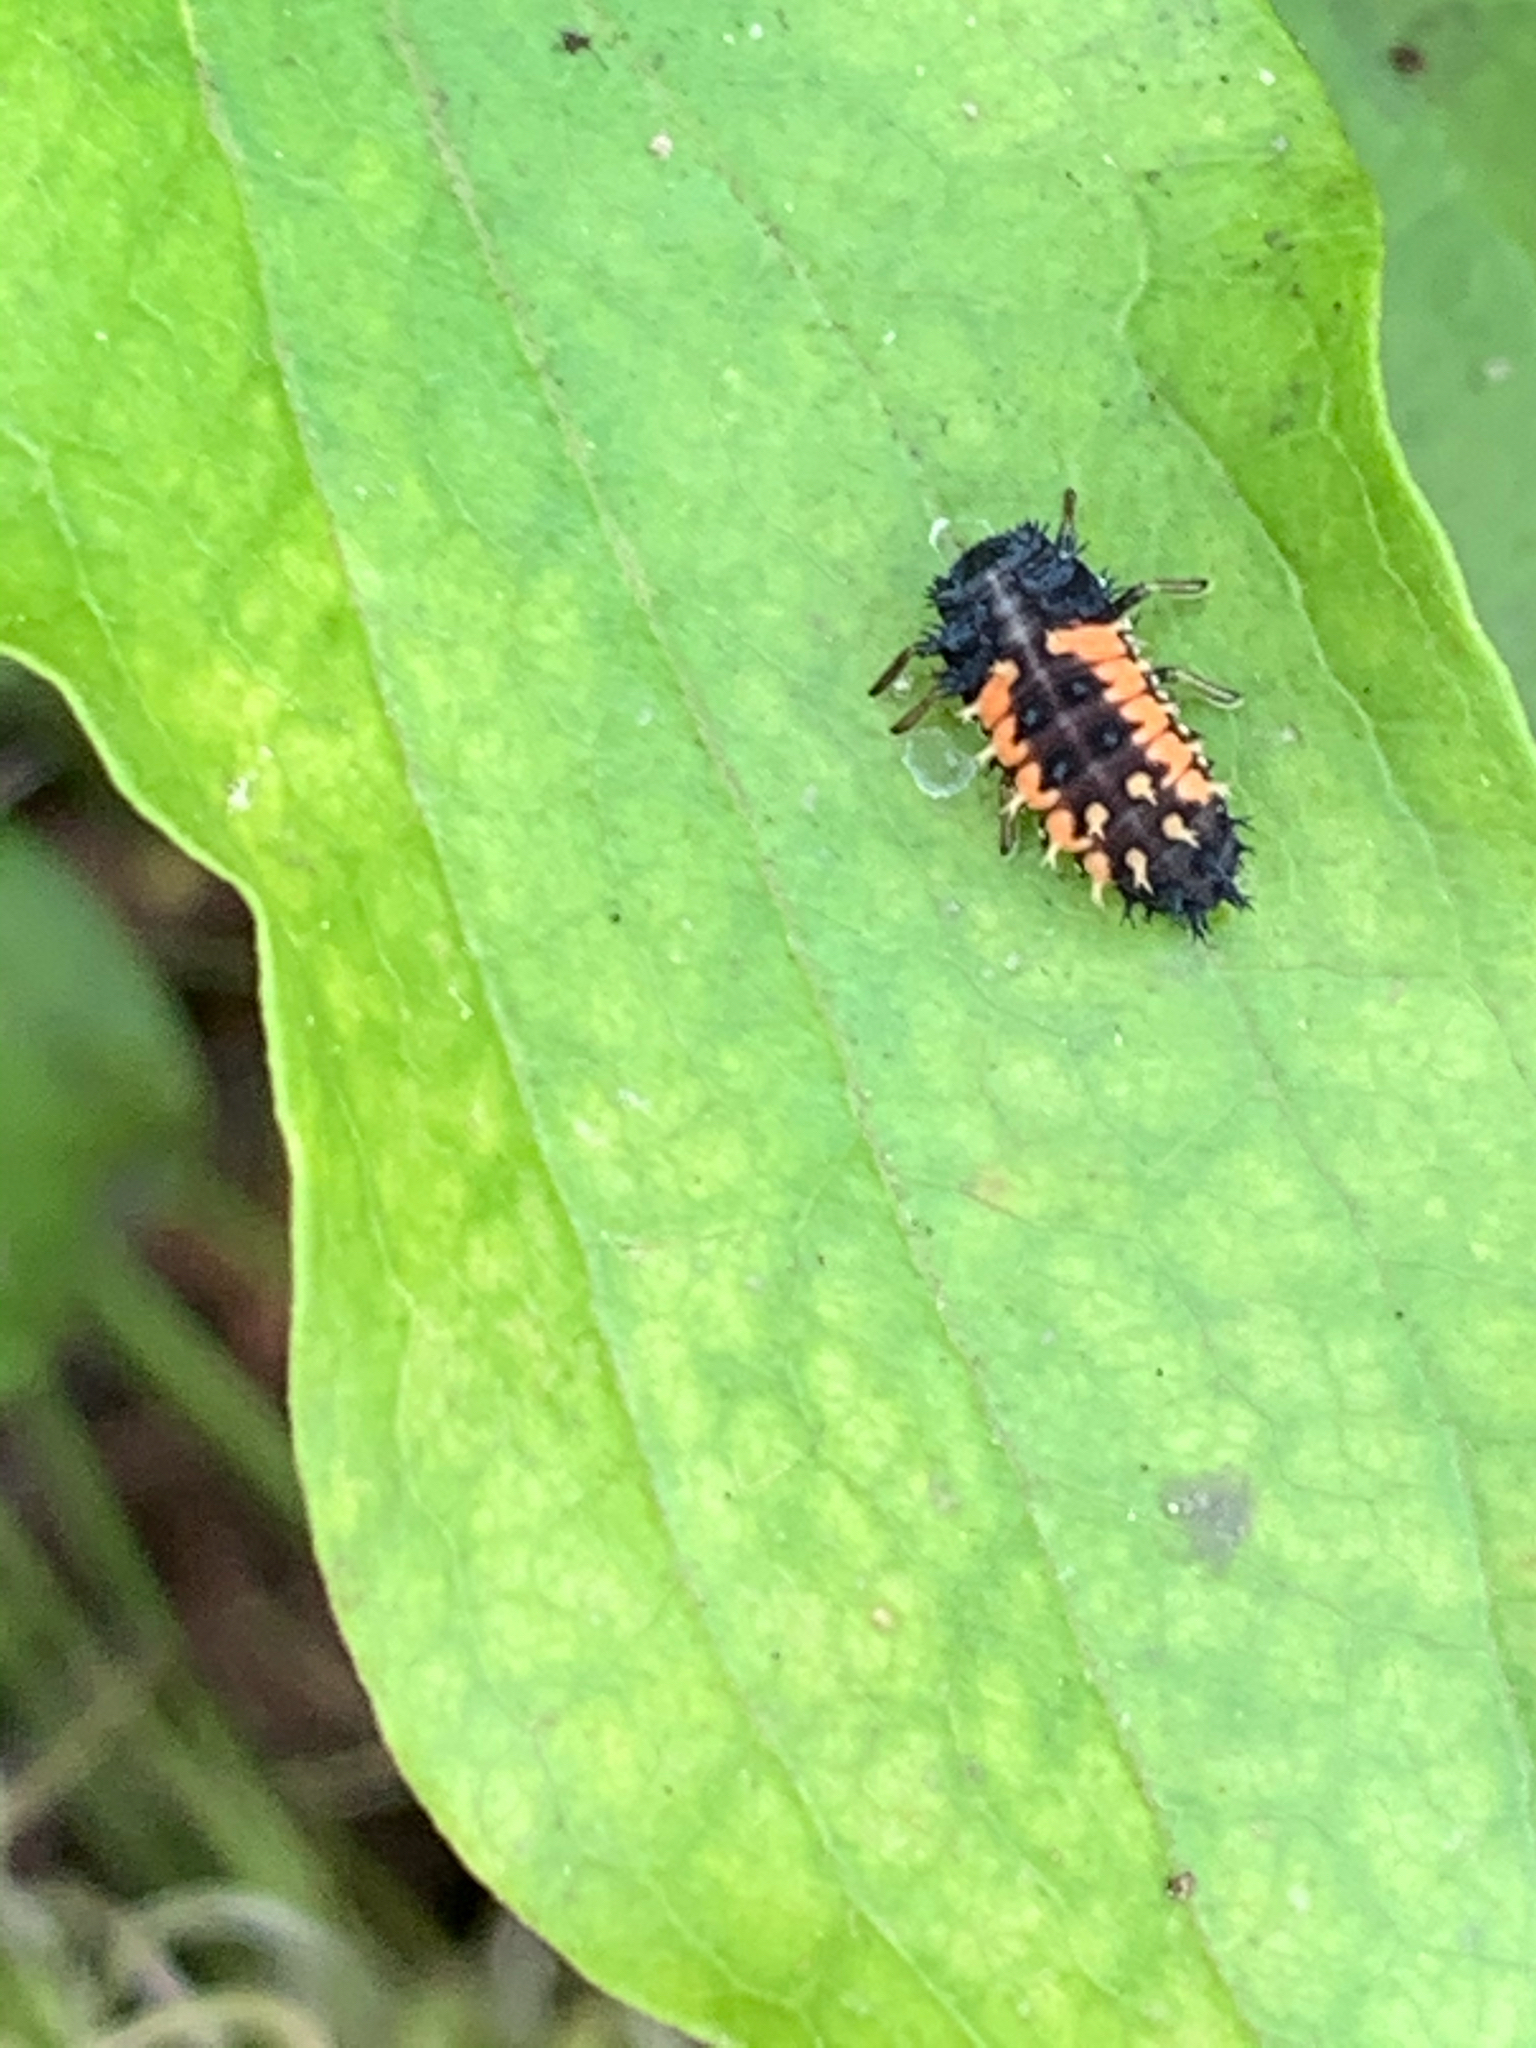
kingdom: Animalia
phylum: Arthropoda
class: Insecta
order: Coleoptera
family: Coccinellidae
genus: Harmonia
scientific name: Harmonia axyridis
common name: Harlequin ladybird
